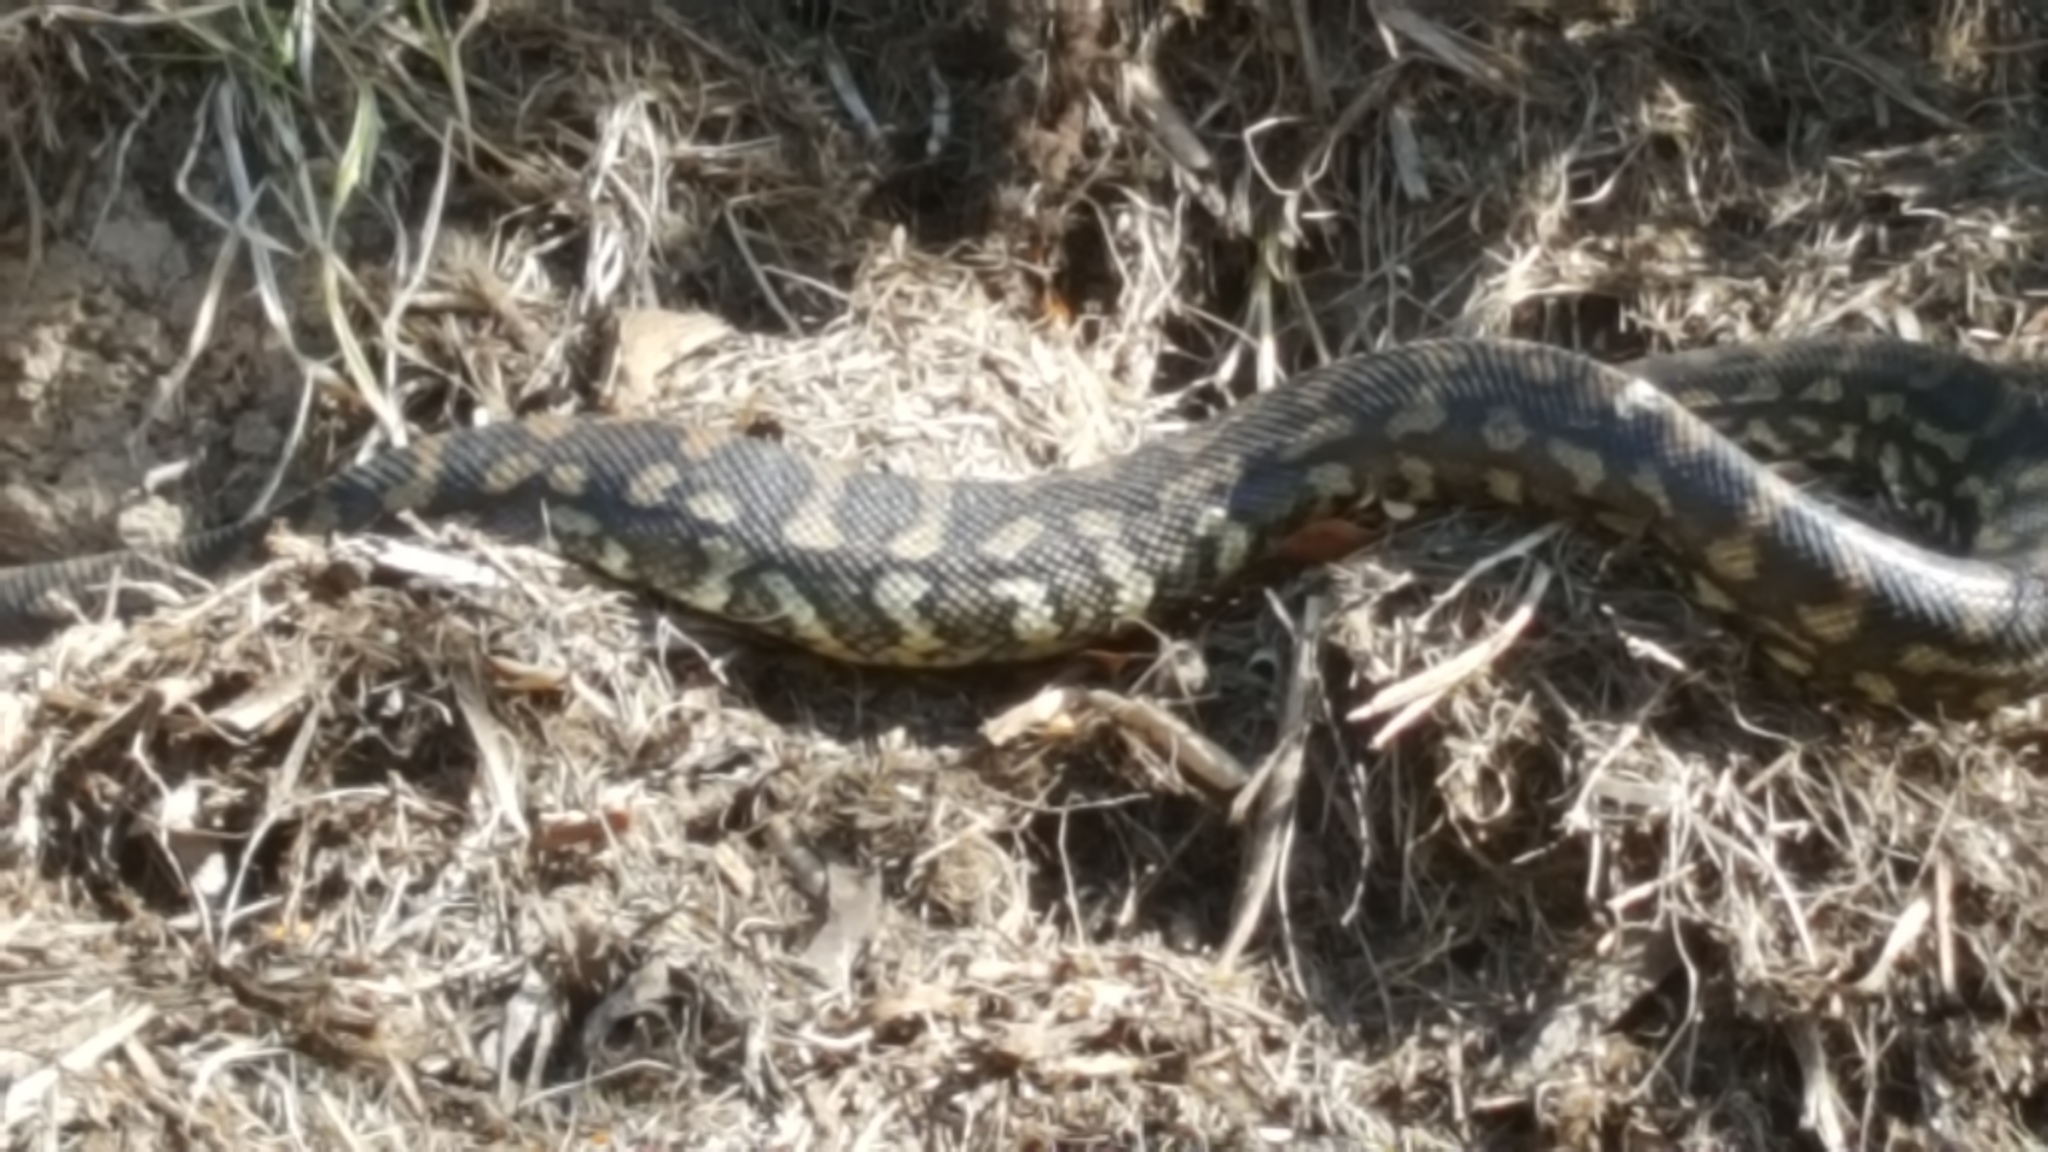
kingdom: Animalia
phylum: Chordata
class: Squamata
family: Pythonidae
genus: Morelia
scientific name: Morelia spilota
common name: Carpet python
